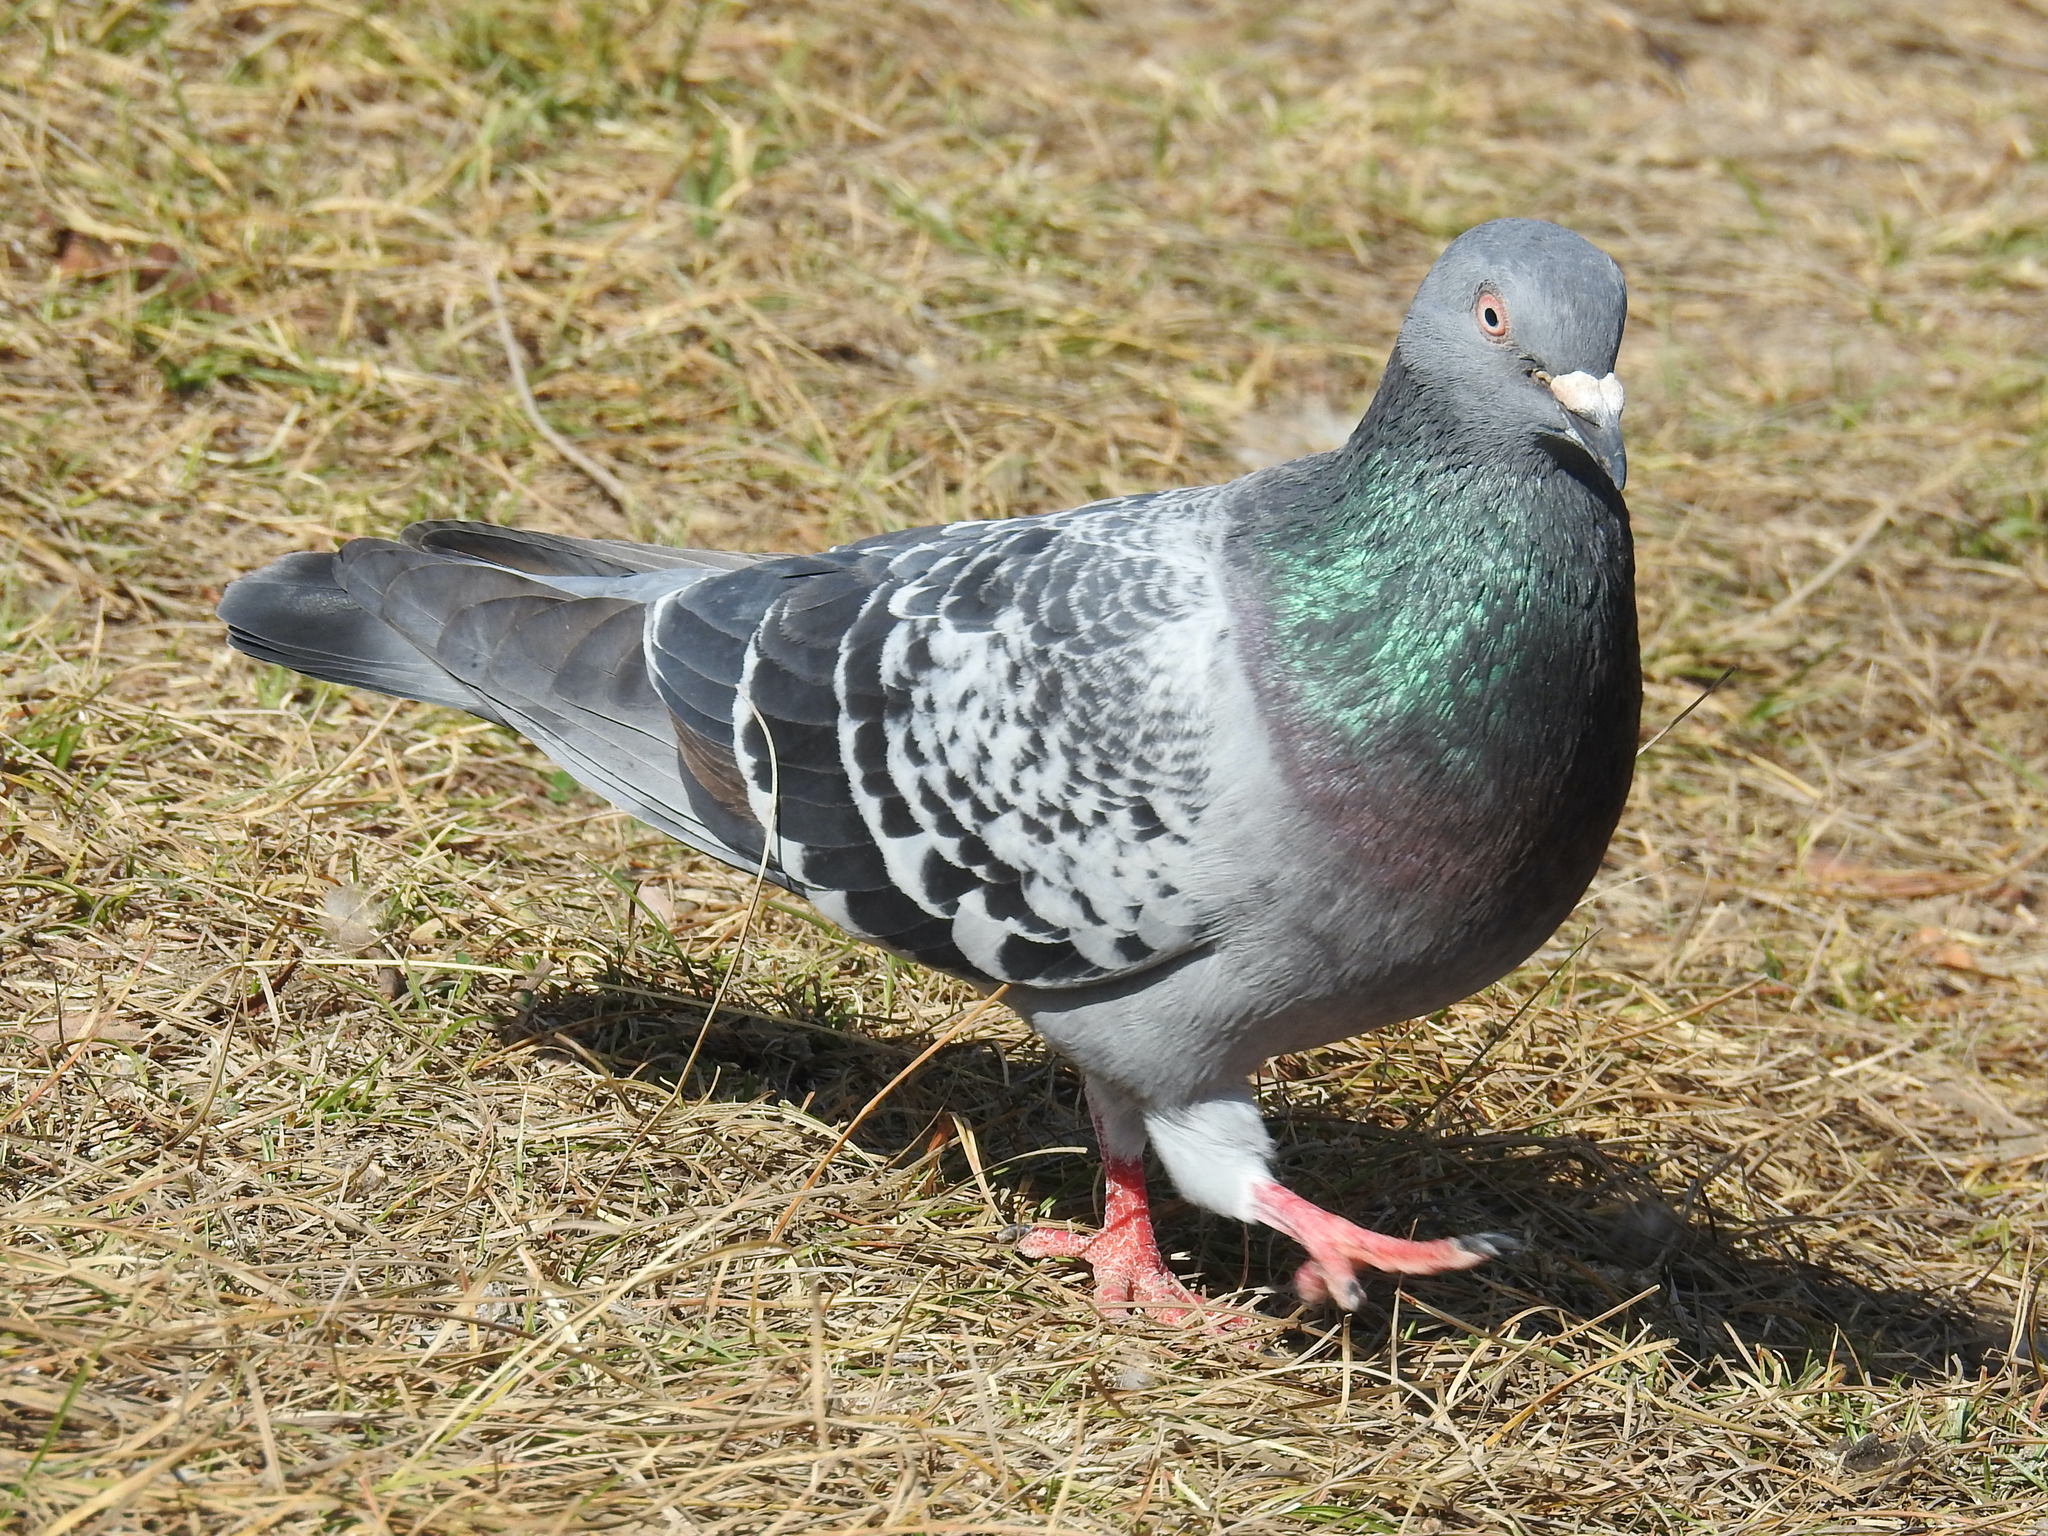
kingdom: Animalia
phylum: Chordata
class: Aves
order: Columbiformes
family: Columbidae
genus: Columba
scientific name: Columba livia
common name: Rock pigeon
